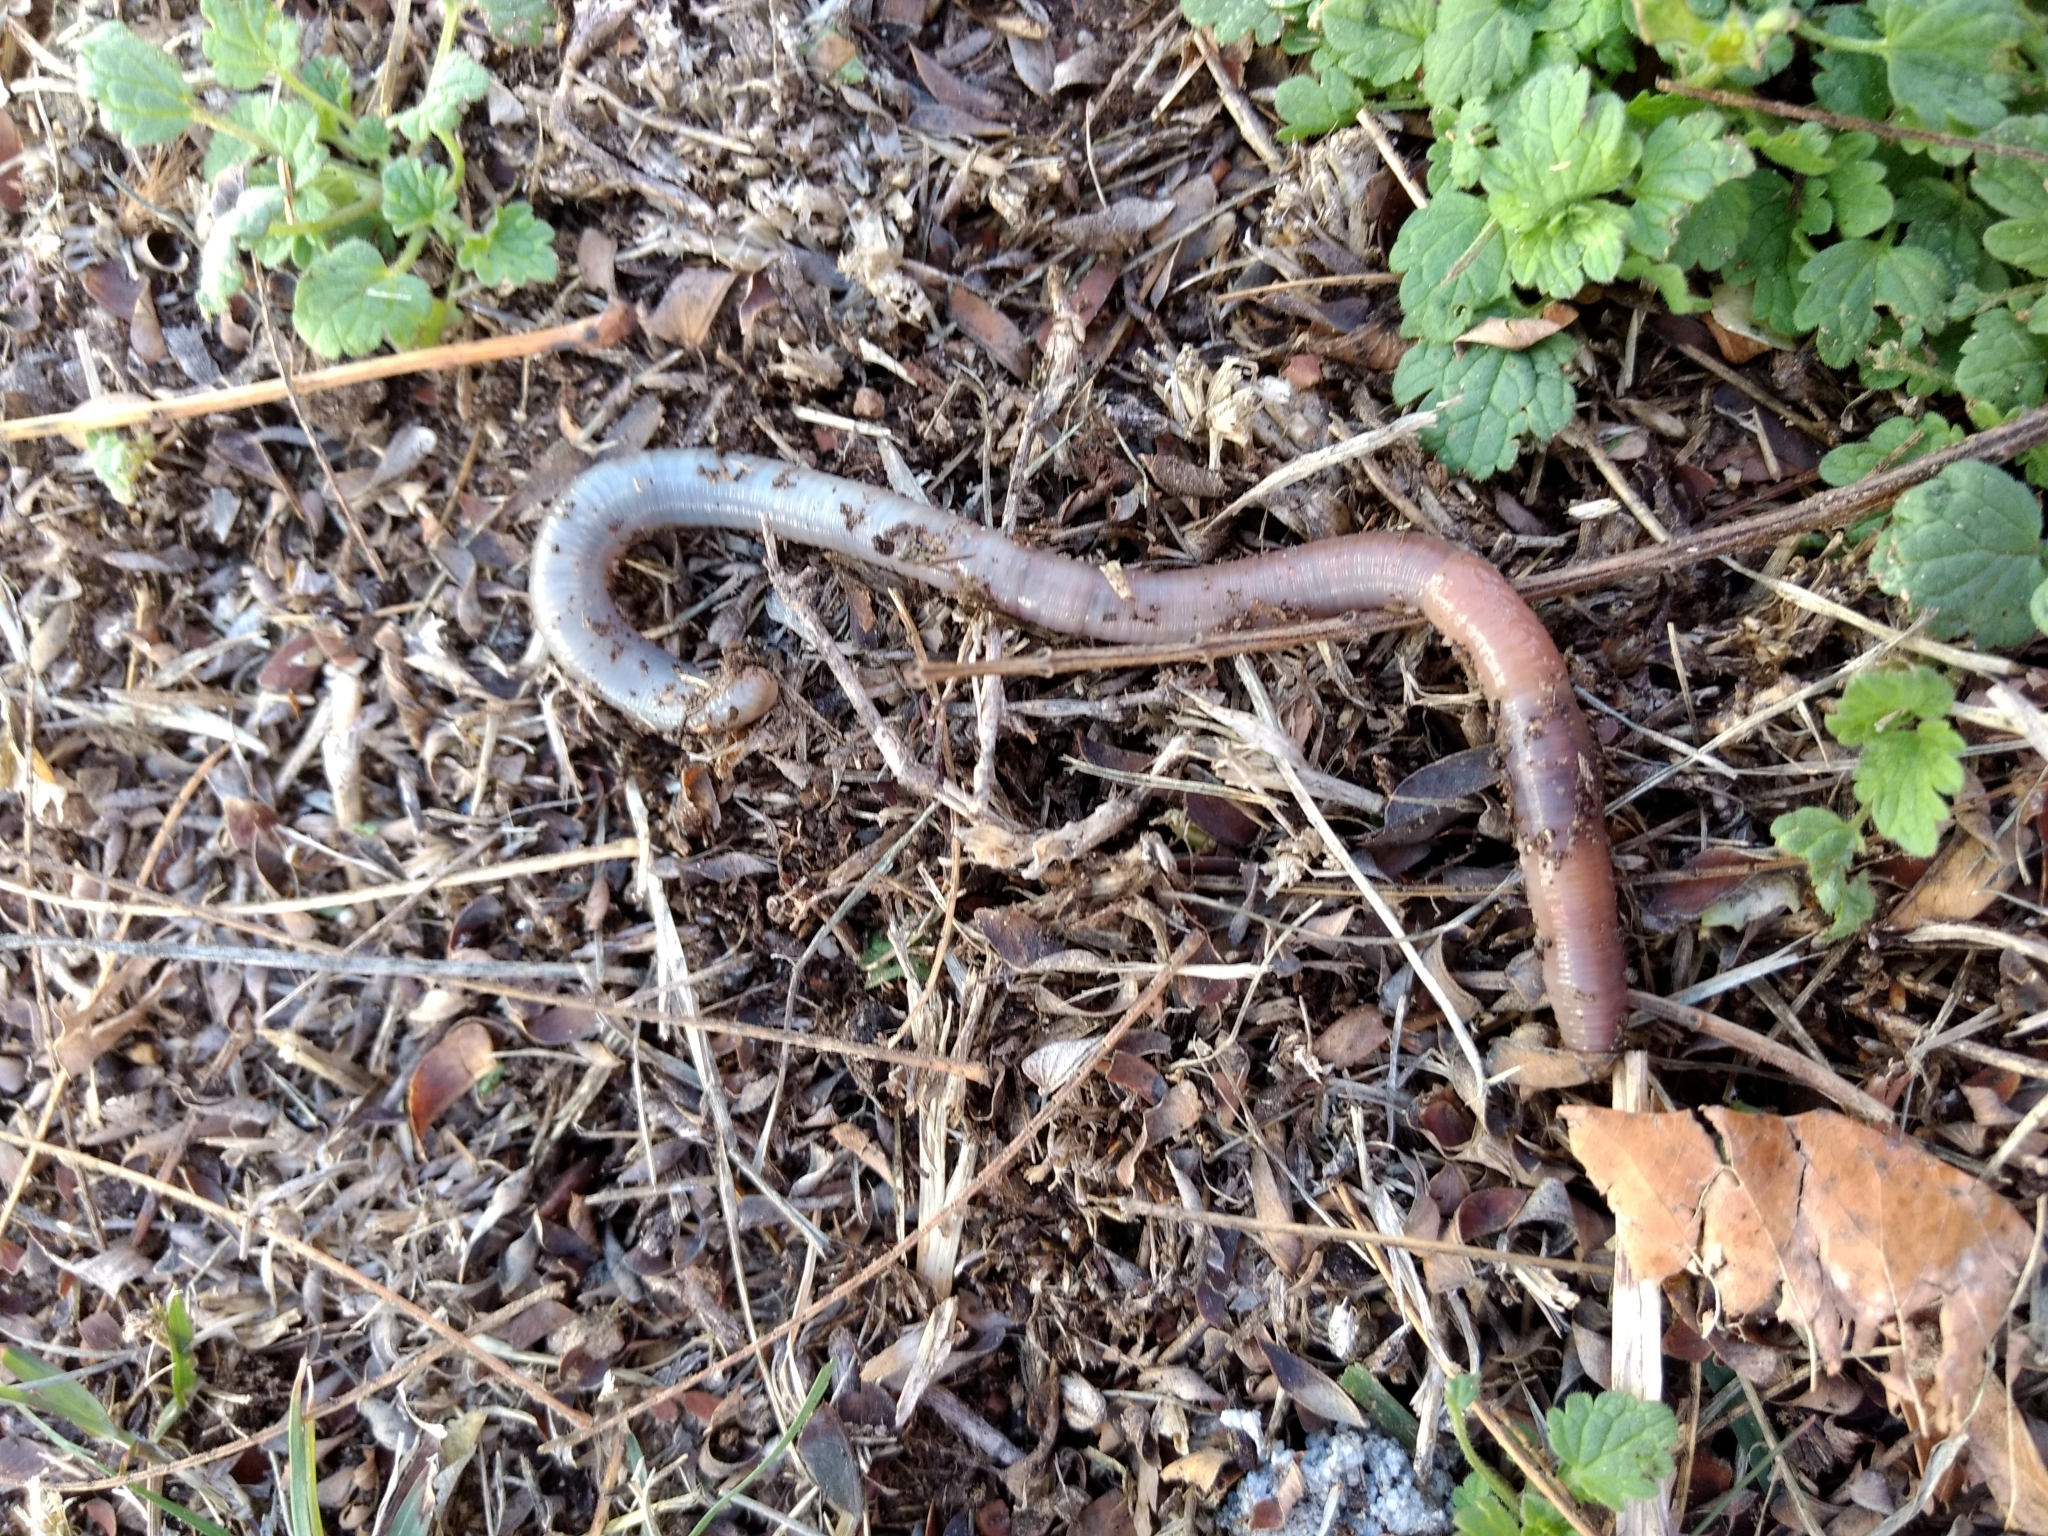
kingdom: Animalia
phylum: Annelida
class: Clitellata
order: Crassiclitellata
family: Lumbricidae
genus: Lumbricus
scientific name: Lumbricus terrestris
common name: Common earthworm
